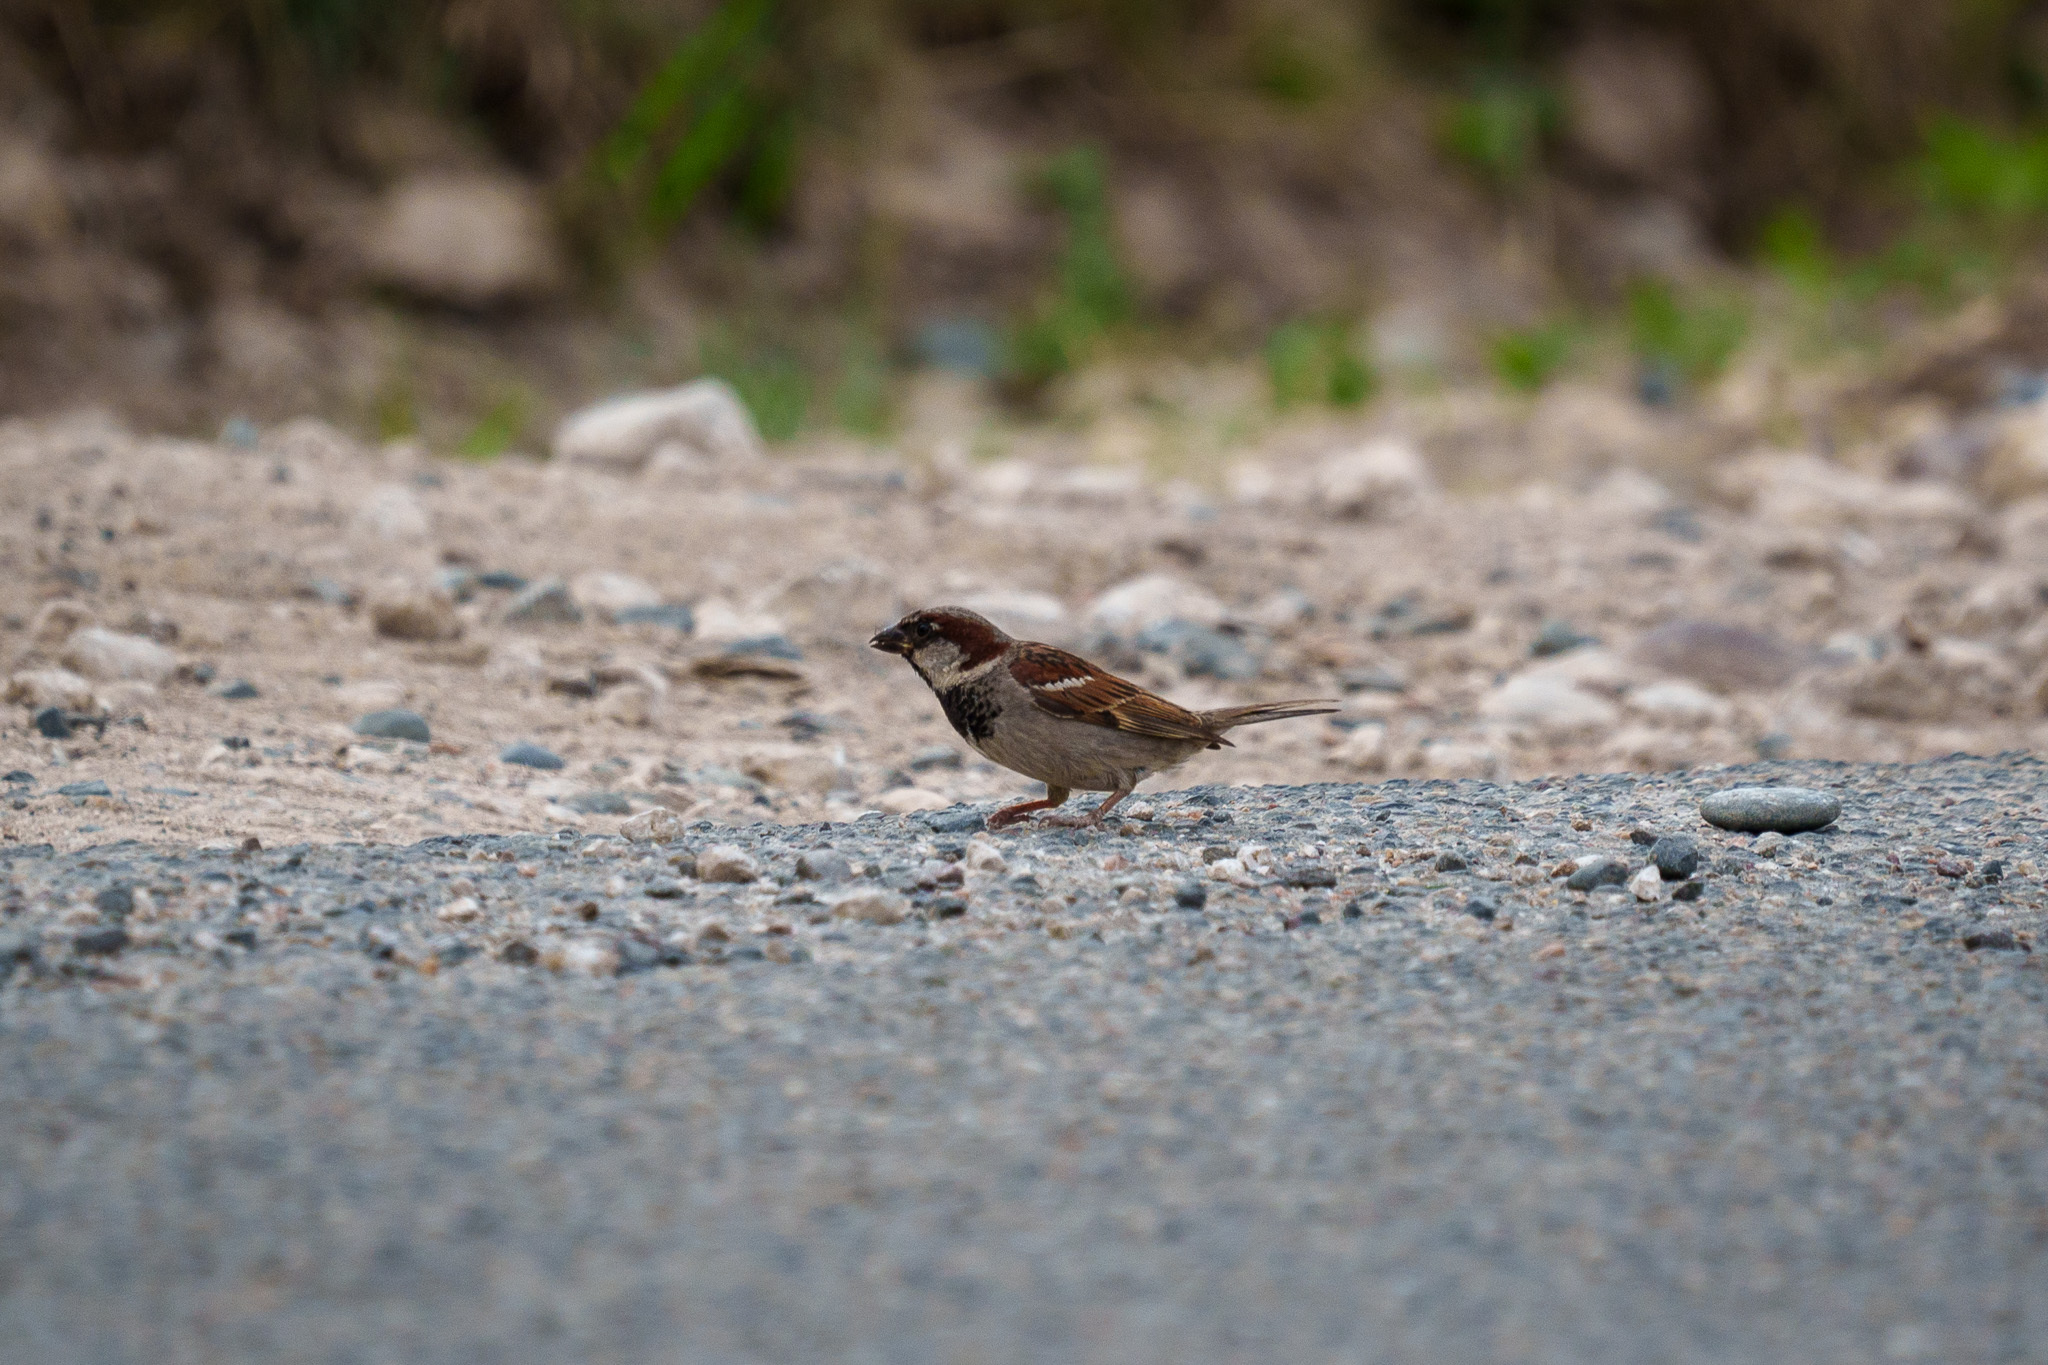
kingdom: Animalia
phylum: Chordata
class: Aves
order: Passeriformes
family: Passeridae
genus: Passer
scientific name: Passer domesticus
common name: House sparrow
